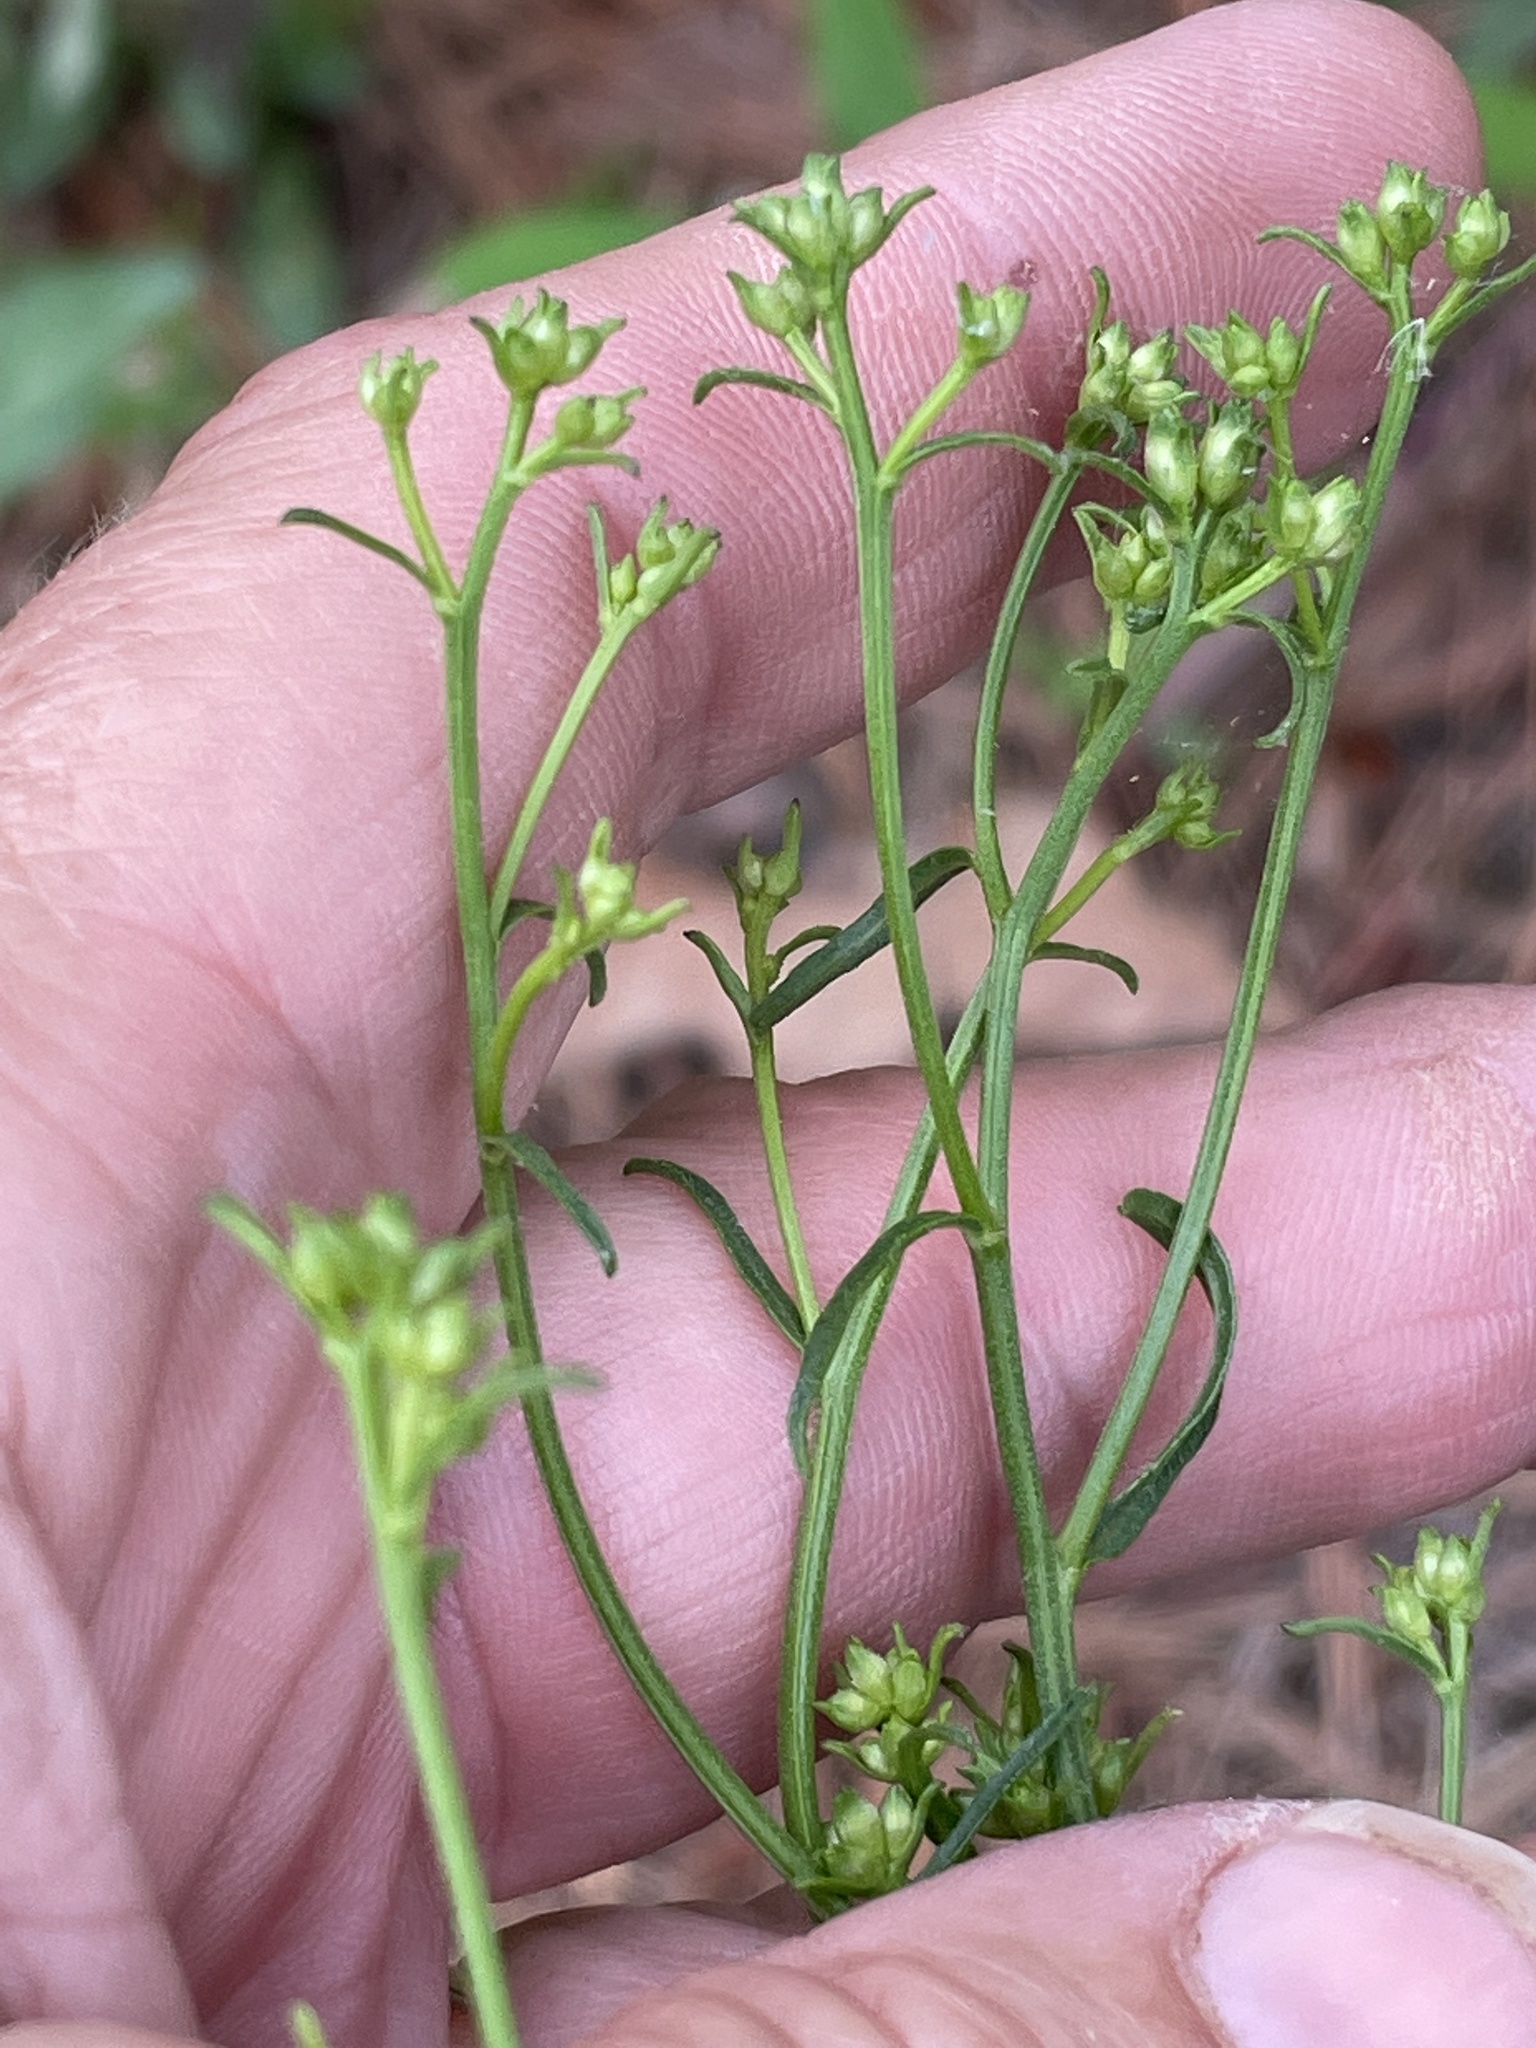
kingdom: Plantae
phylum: Tracheophyta
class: Magnoliopsida
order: Asterales
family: Asteraceae
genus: Sericocarpus
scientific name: Sericocarpus linifolius
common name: Narrow-leaf aster
